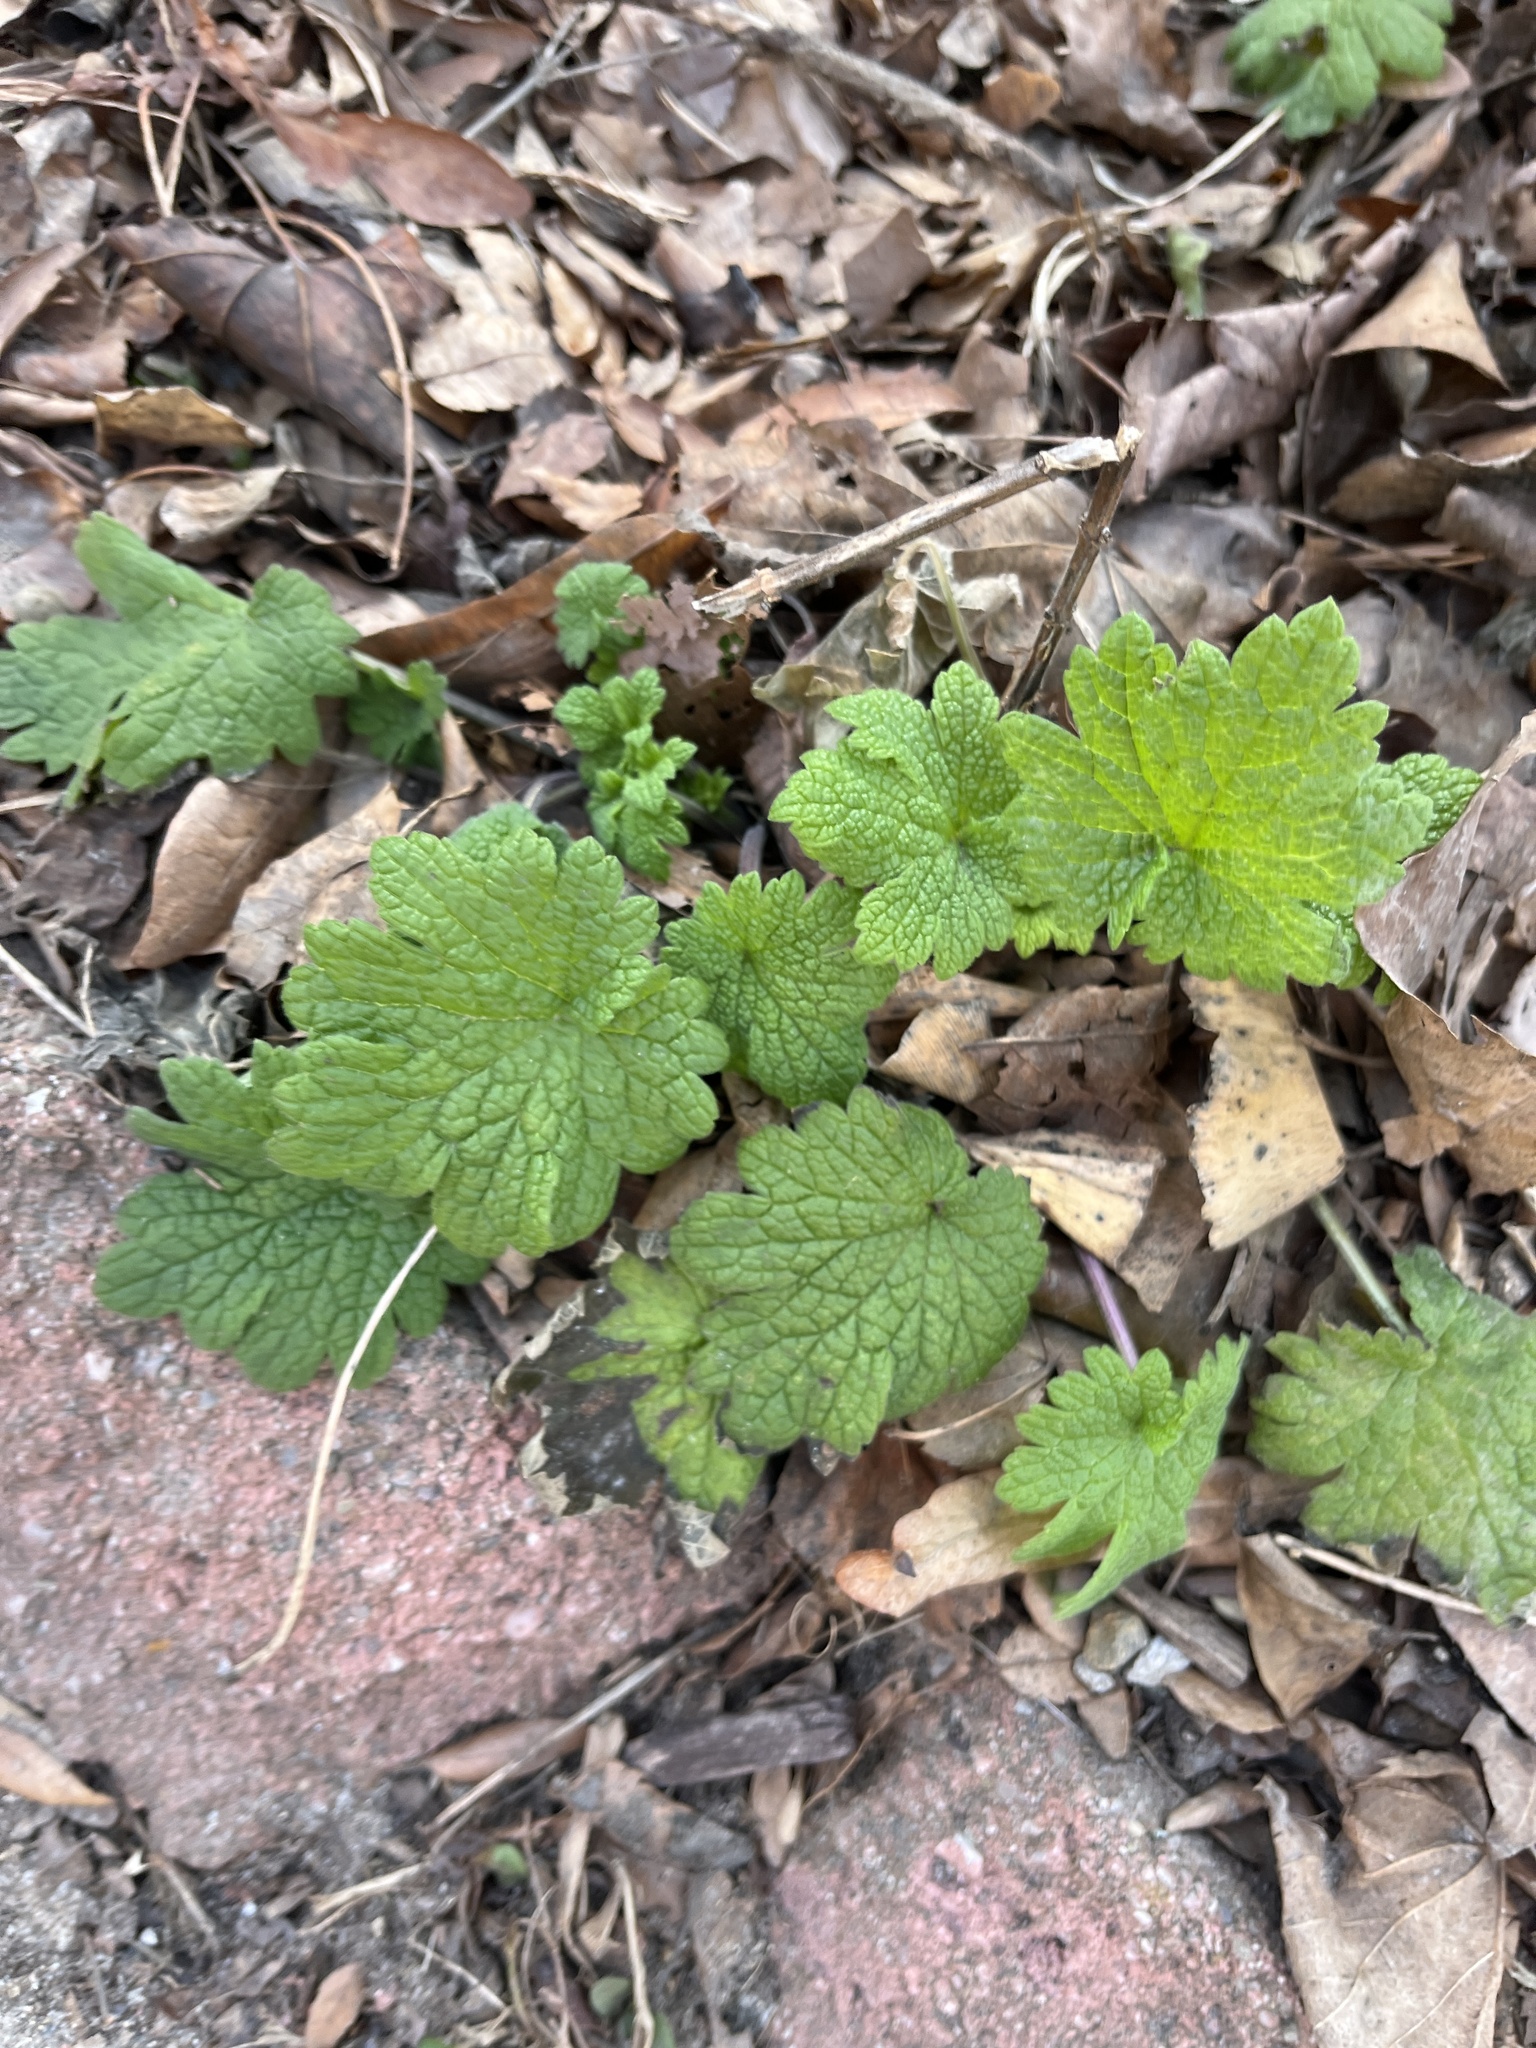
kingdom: Plantae
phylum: Tracheophyta
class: Magnoliopsida
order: Lamiales
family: Lamiaceae
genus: Leonurus
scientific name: Leonurus cardiaca
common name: Motherwort
